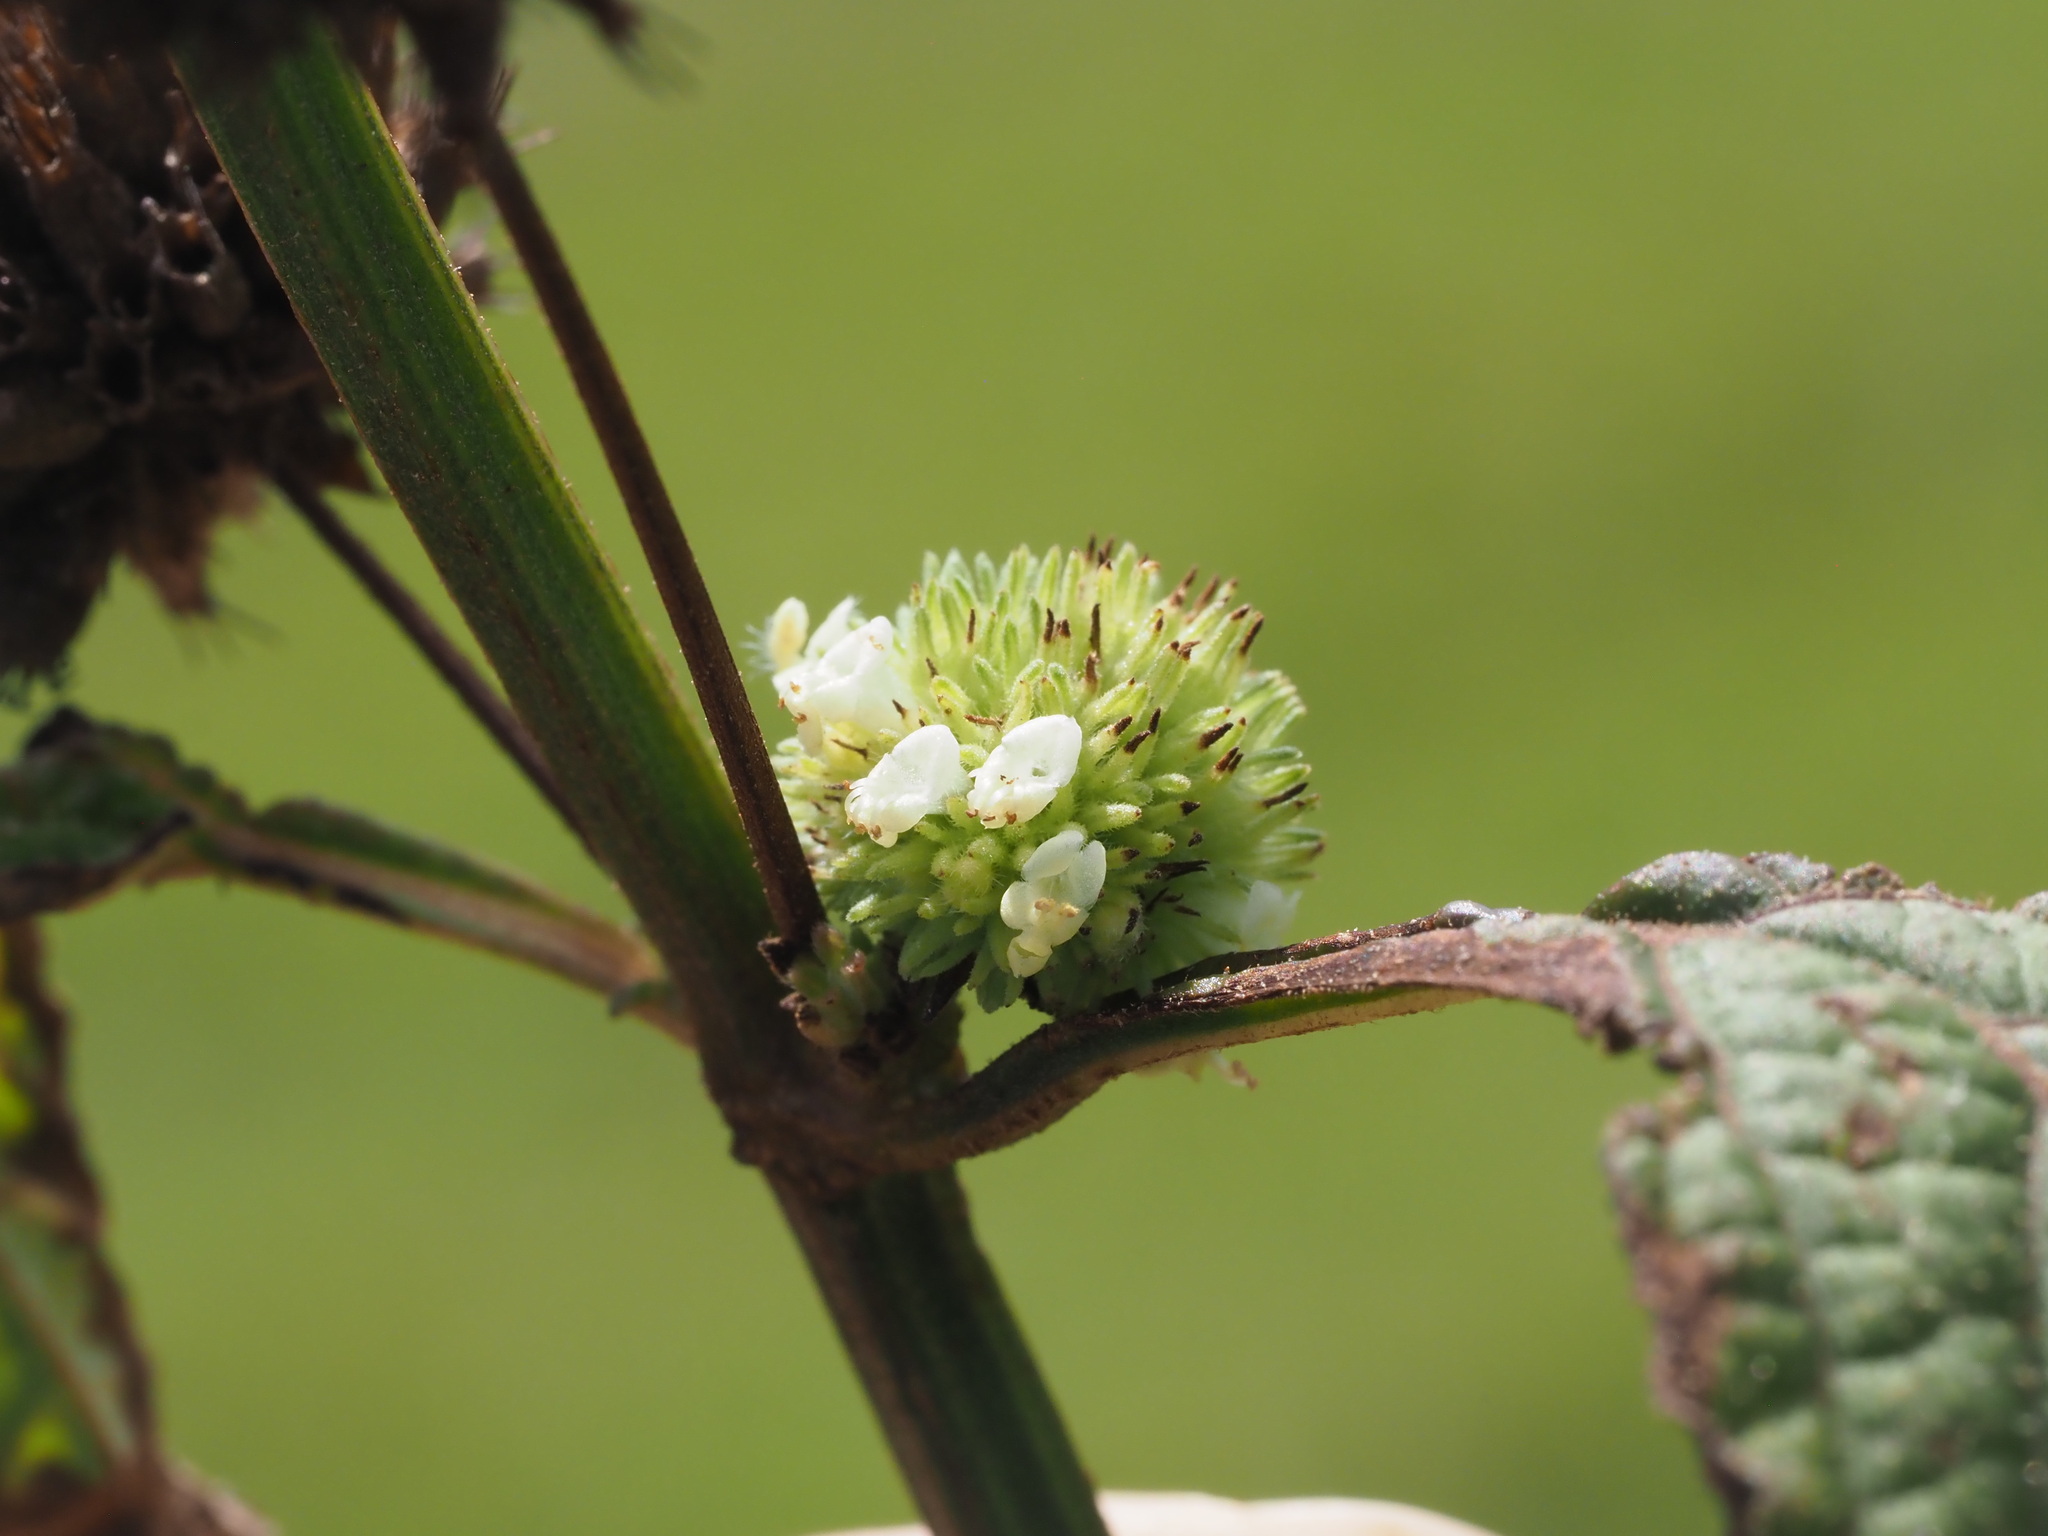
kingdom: Plantae
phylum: Tracheophyta
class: Magnoliopsida
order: Lamiales
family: Lamiaceae
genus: Hyptis
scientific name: Hyptis capitata
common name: False ironwort
